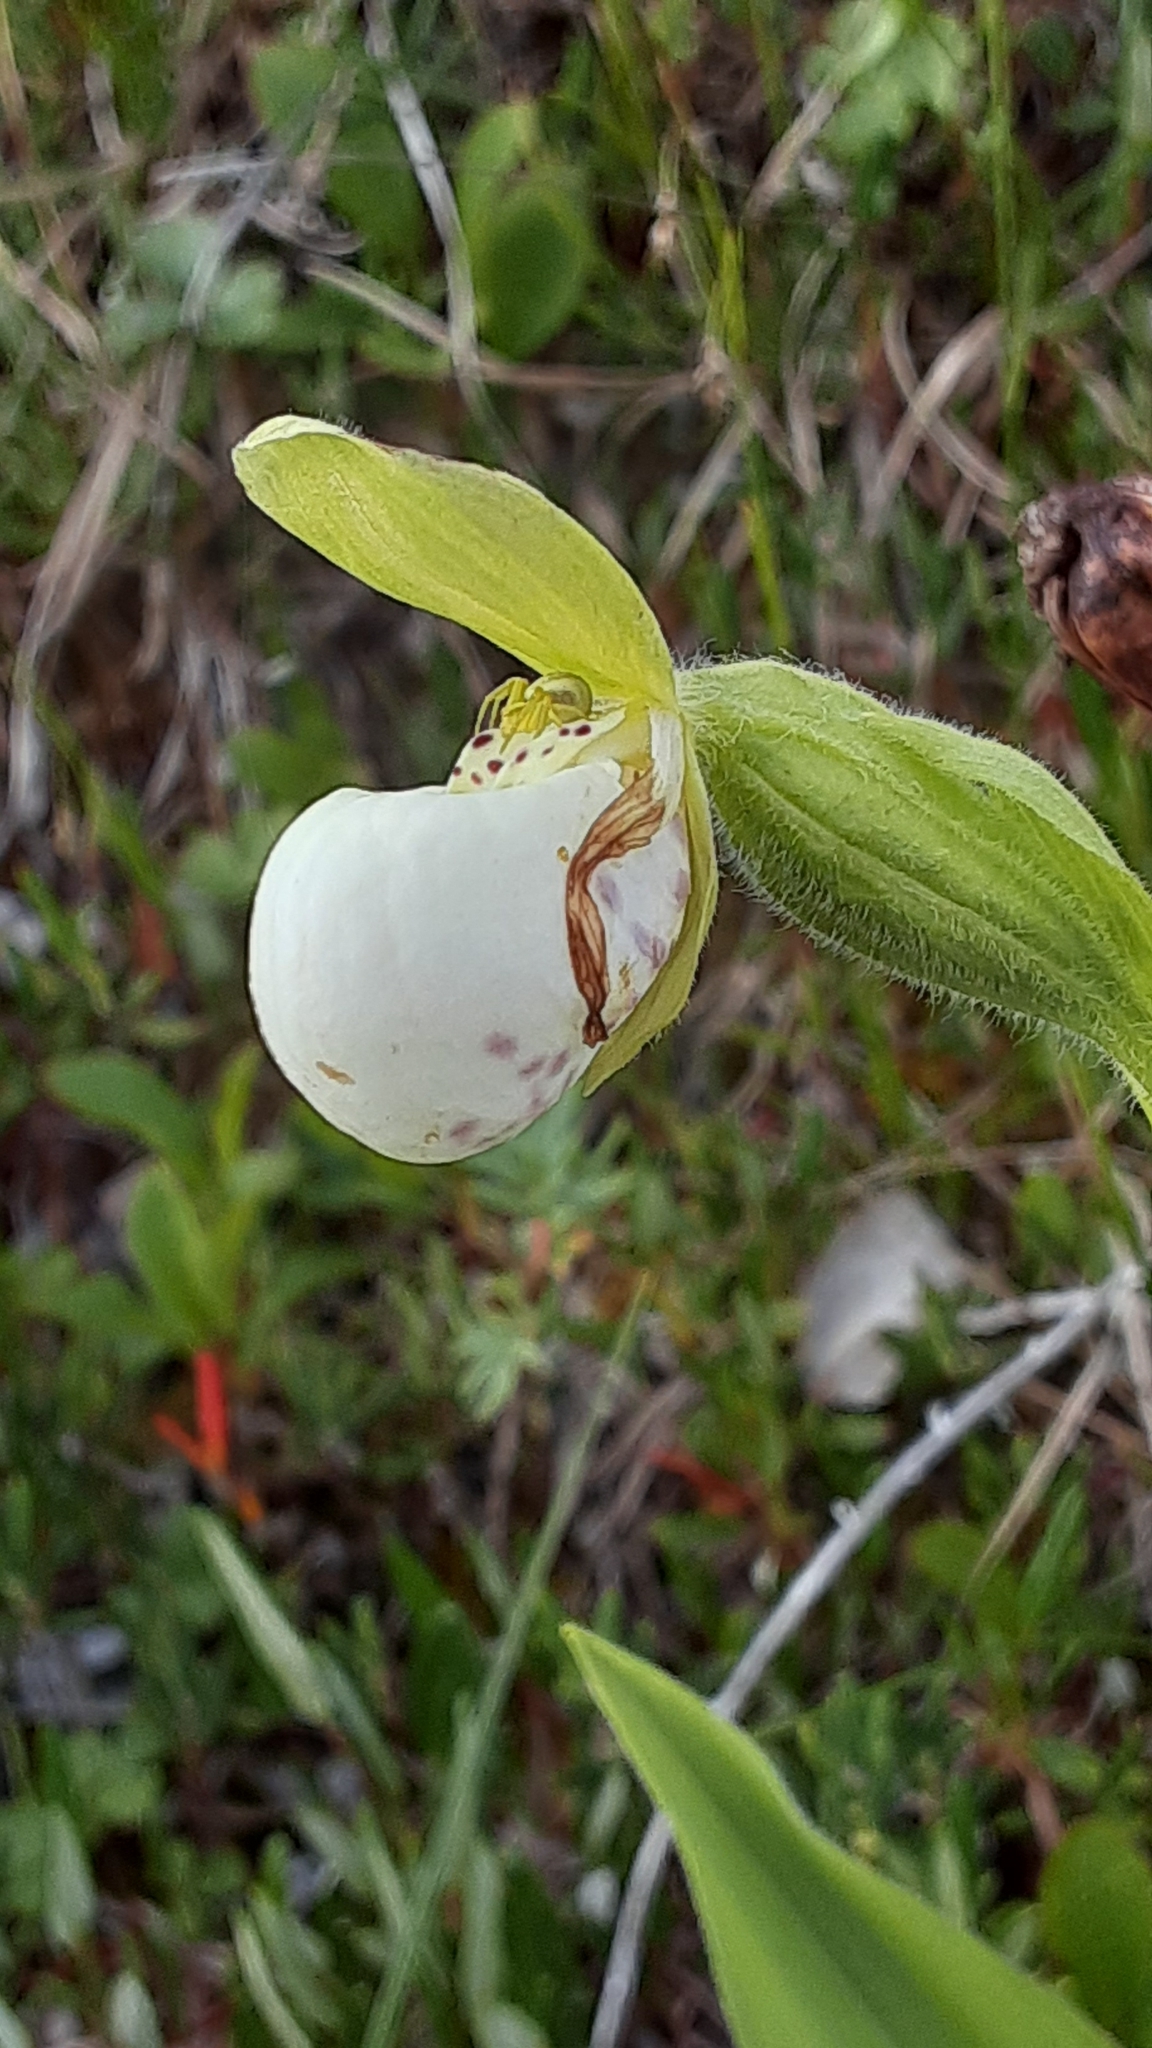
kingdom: Plantae
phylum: Tracheophyta
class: Liliopsida
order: Asparagales
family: Orchidaceae
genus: Cypripedium
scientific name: Cypripedium passerinum
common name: Sparrow's-egg lady's-slipper
